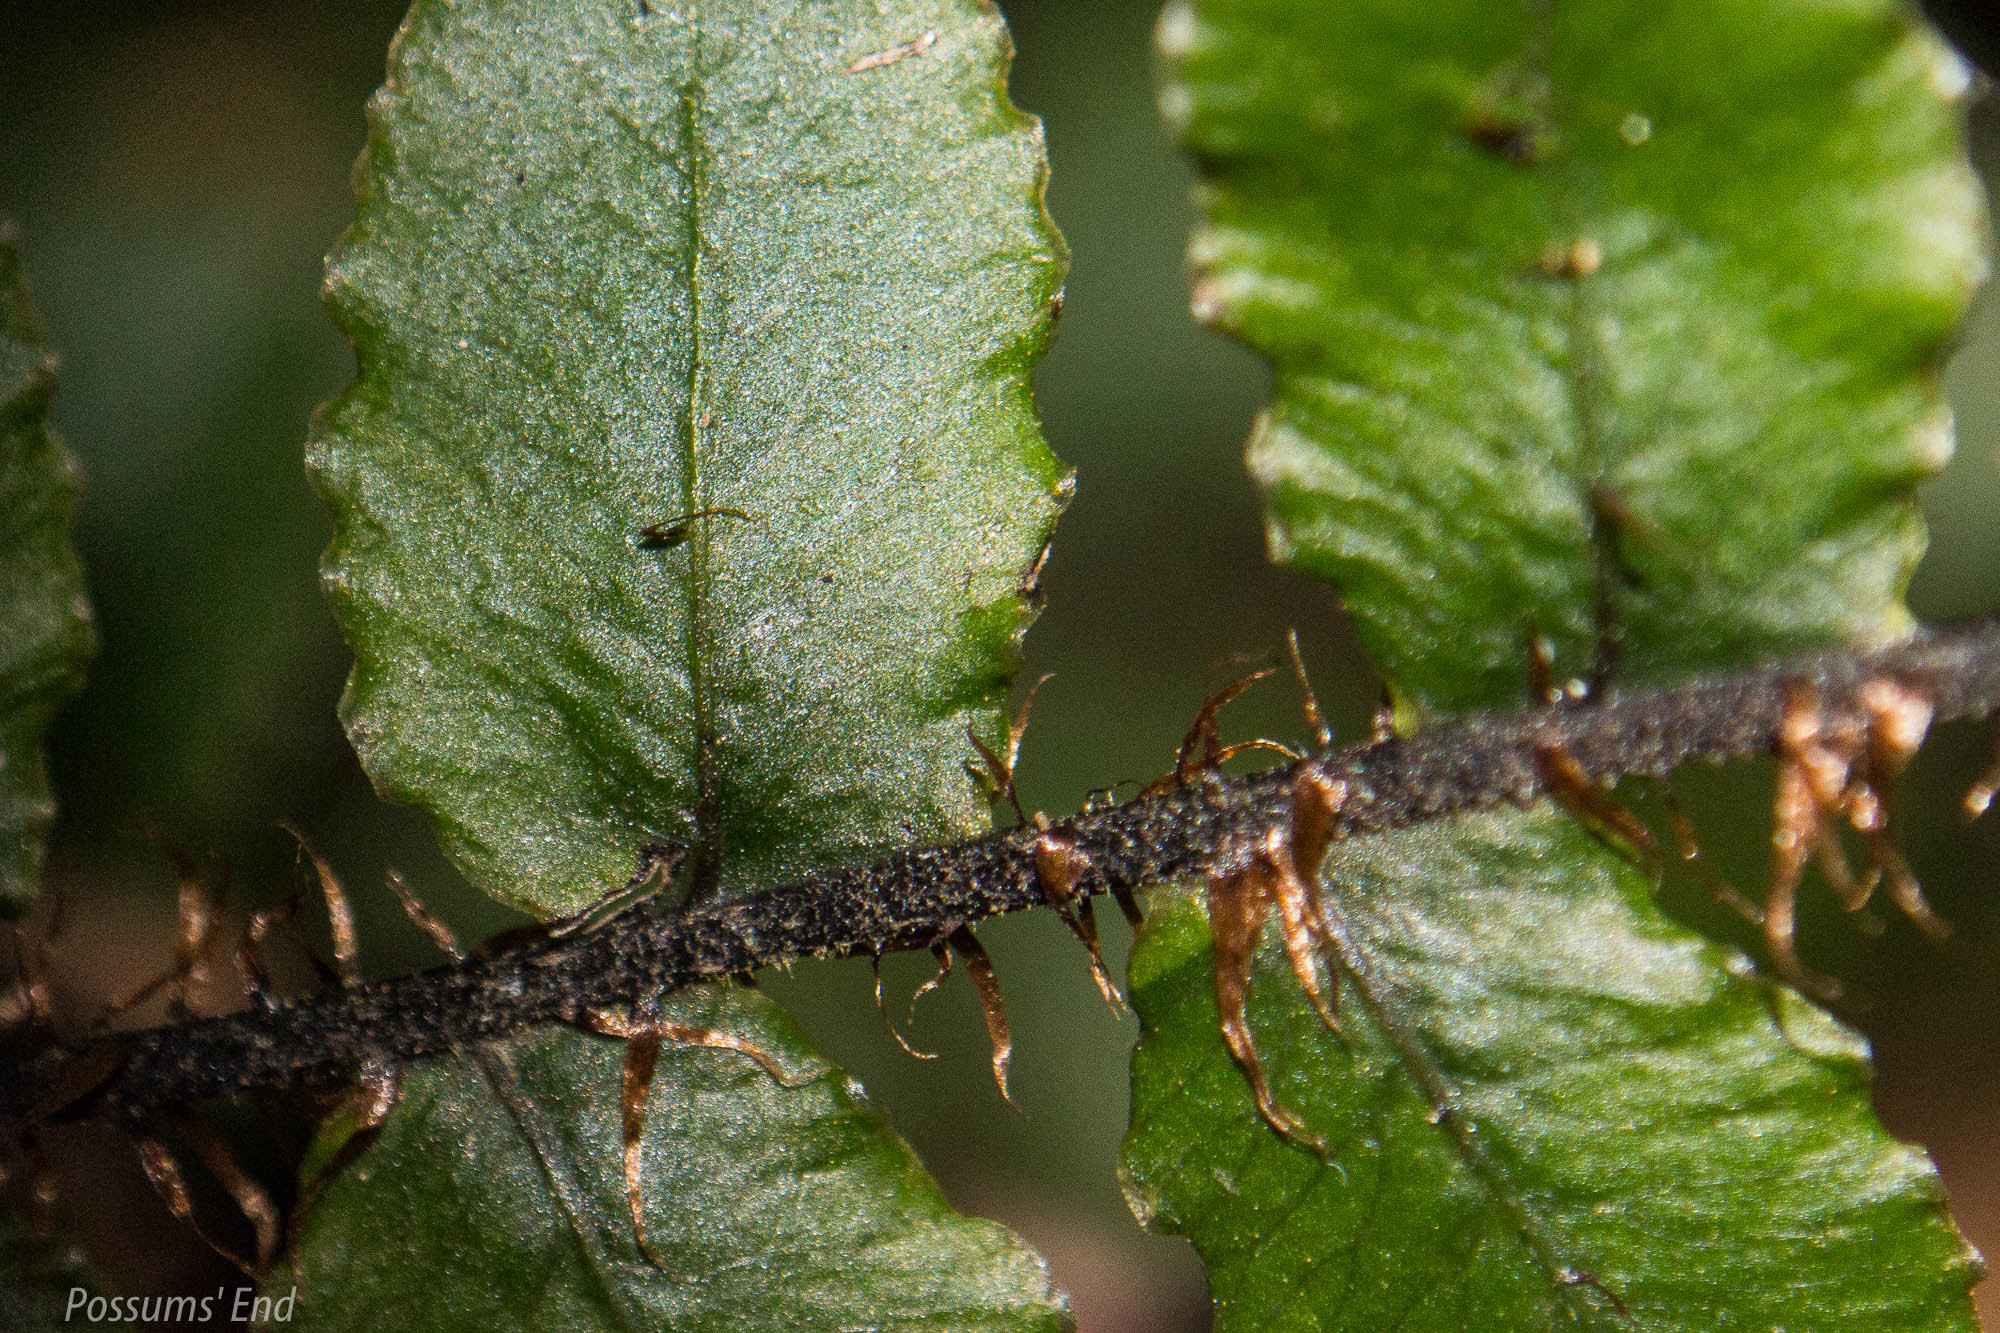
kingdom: Plantae
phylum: Tracheophyta
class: Polypodiopsida
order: Polypodiales
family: Blechnaceae
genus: Cranfillia
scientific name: Cranfillia fluviatilis
